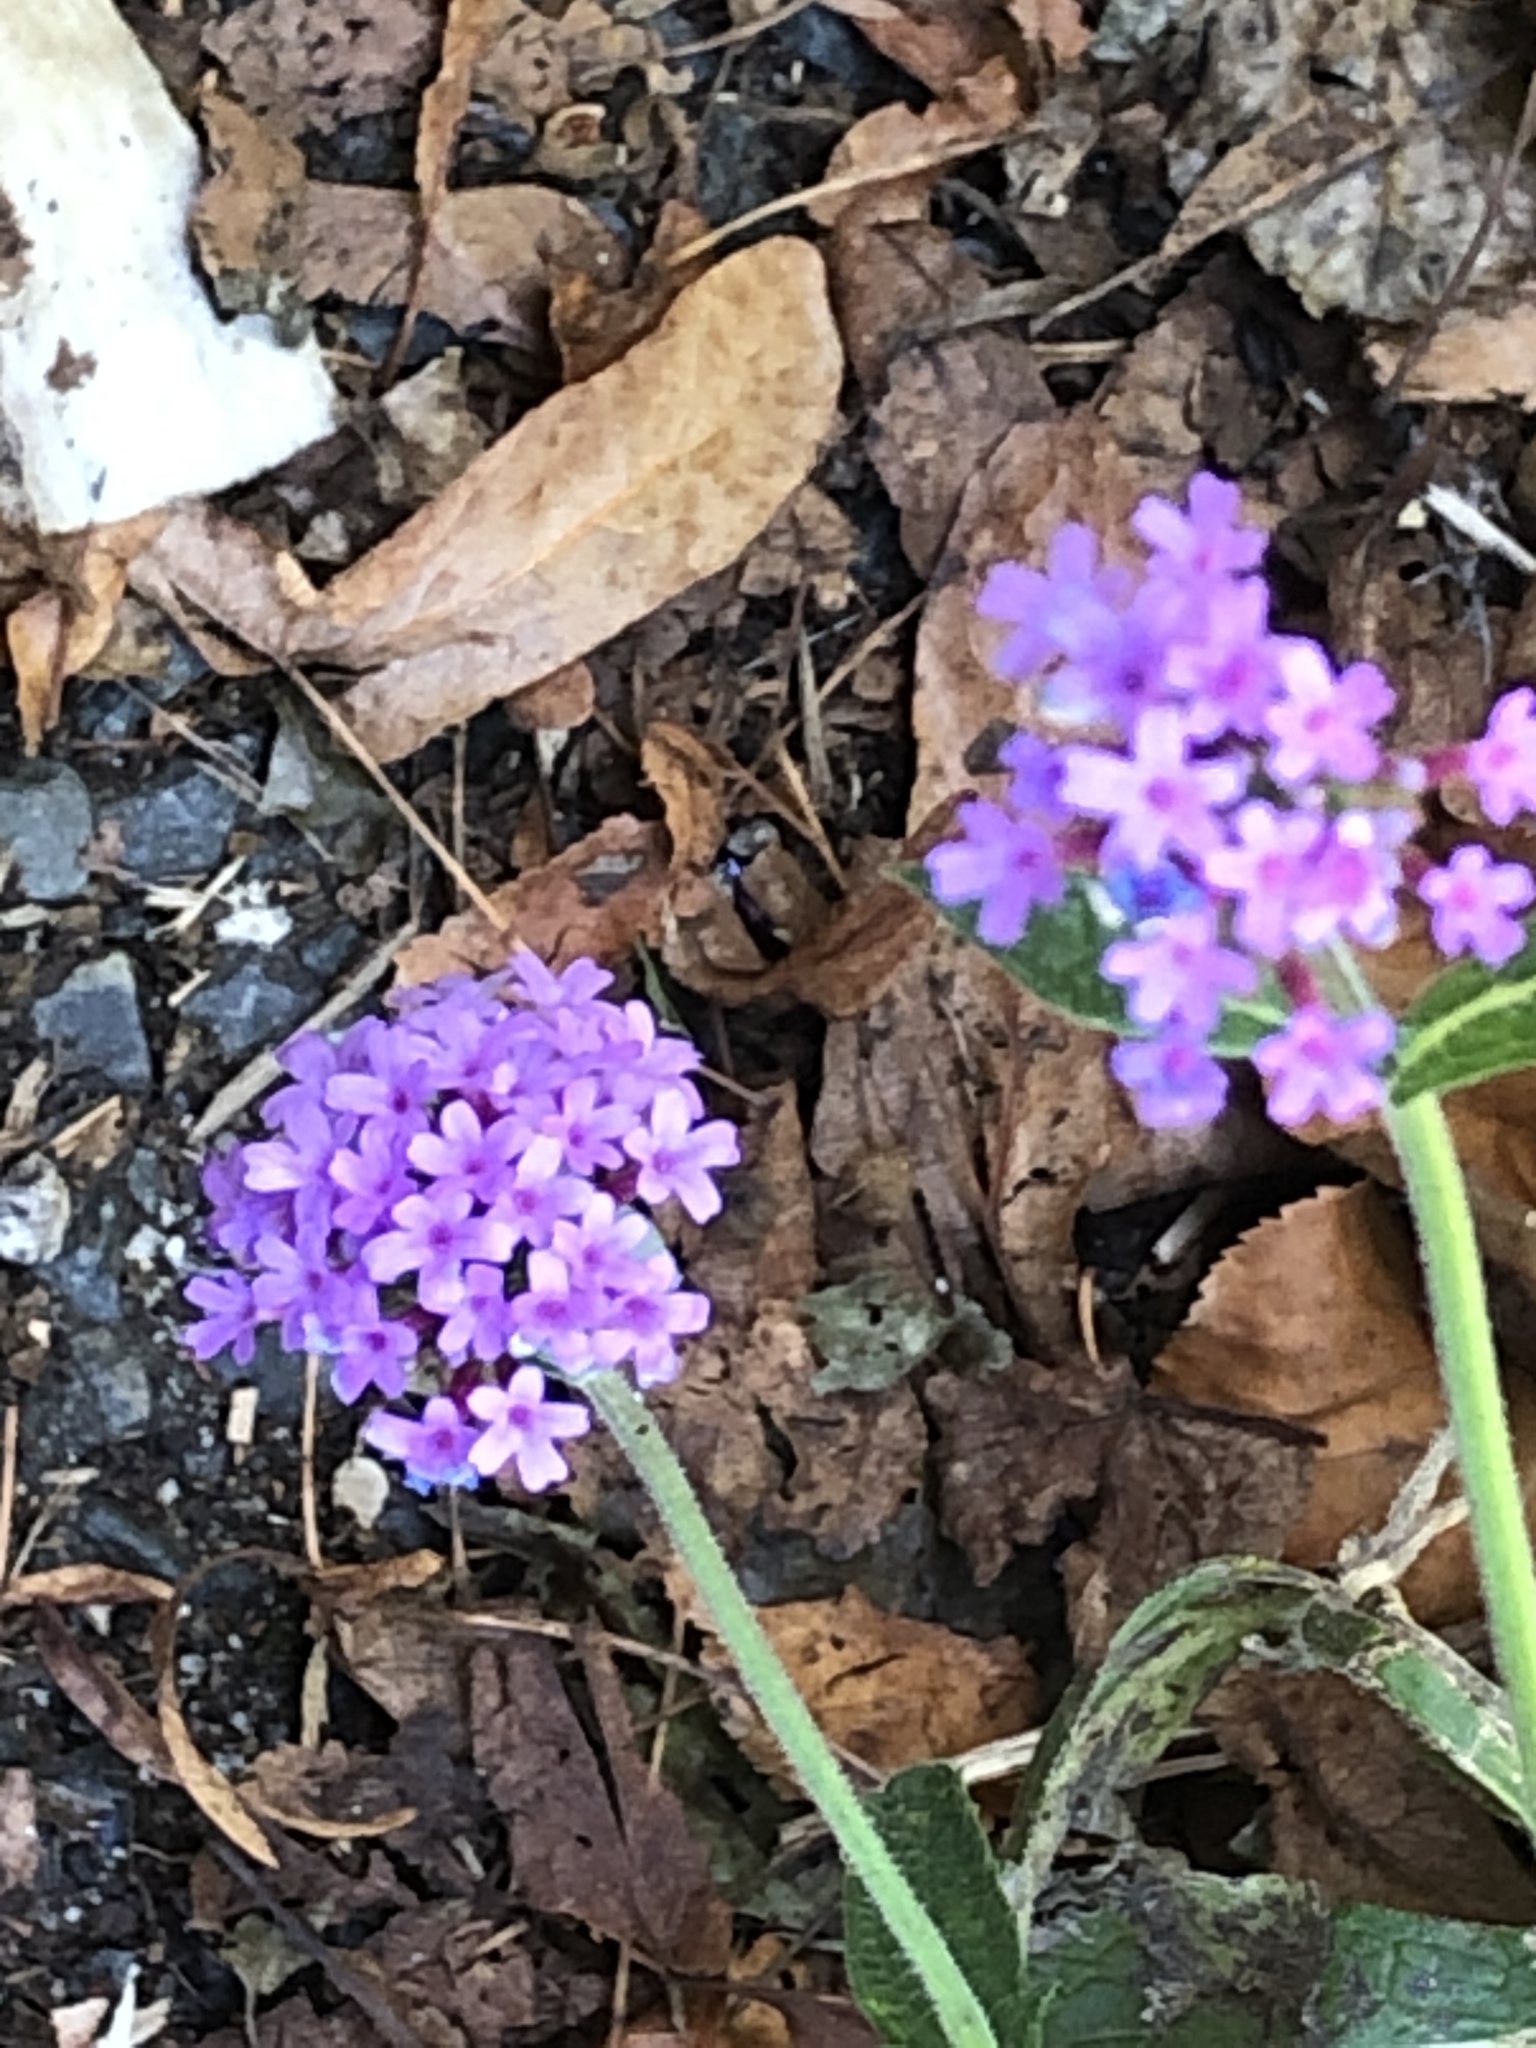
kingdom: Plantae
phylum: Tracheophyta
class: Magnoliopsida
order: Lamiales
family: Verbenaceae
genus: Verbena
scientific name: Verbena bonariensis
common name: Purpletop vervain
